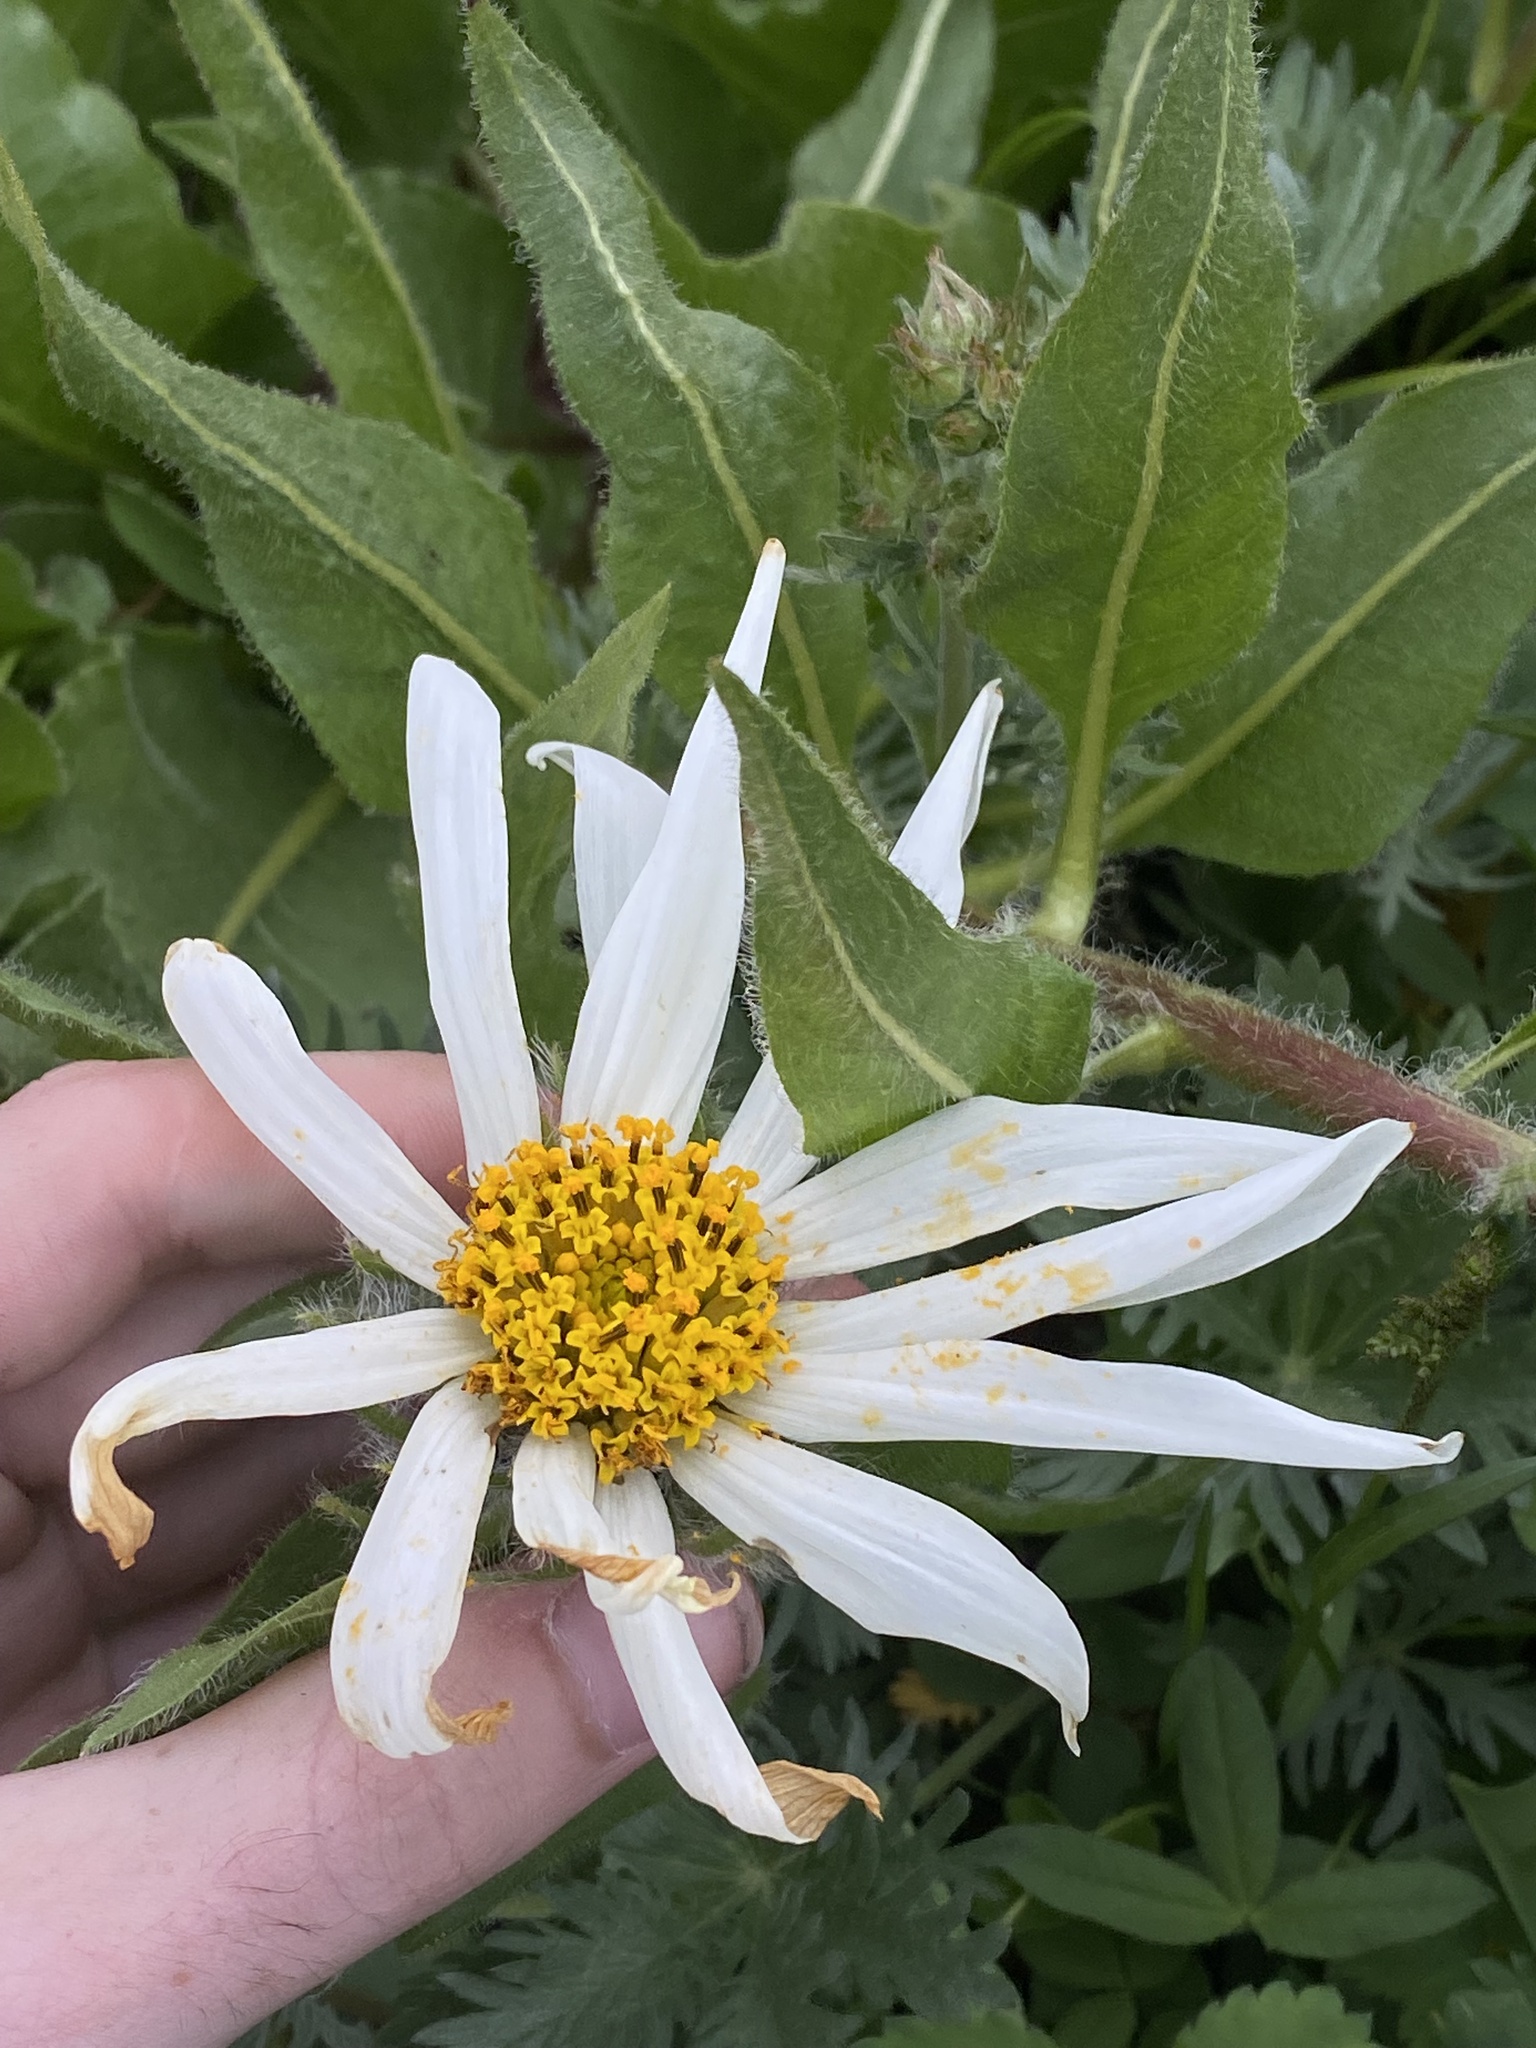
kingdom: Plantae
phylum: Tracheophyta
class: Magnoliopsida
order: Asterales
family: Asteraceae
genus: Wyethia
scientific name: Wyethia helianthoides
